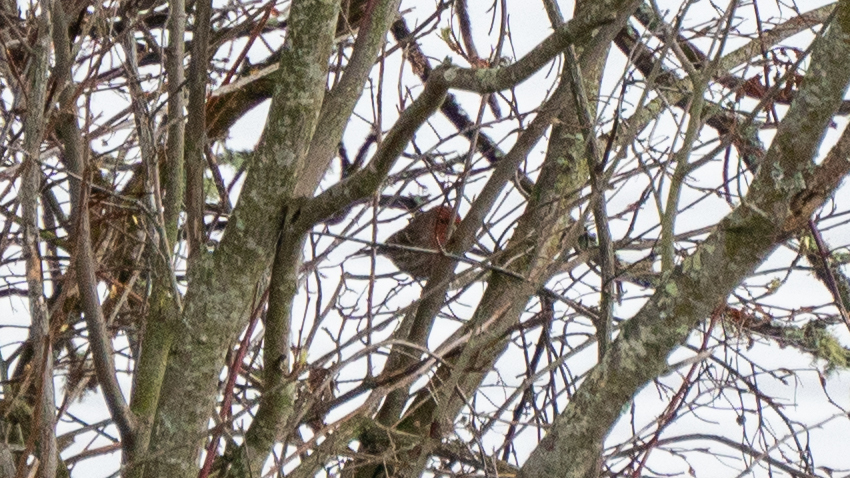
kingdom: Animalia
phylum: Chordata
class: Aves
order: Passeriformes
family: Fringillidae
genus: Haemorhous
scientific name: Haemorhous mexicanus
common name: House finch
